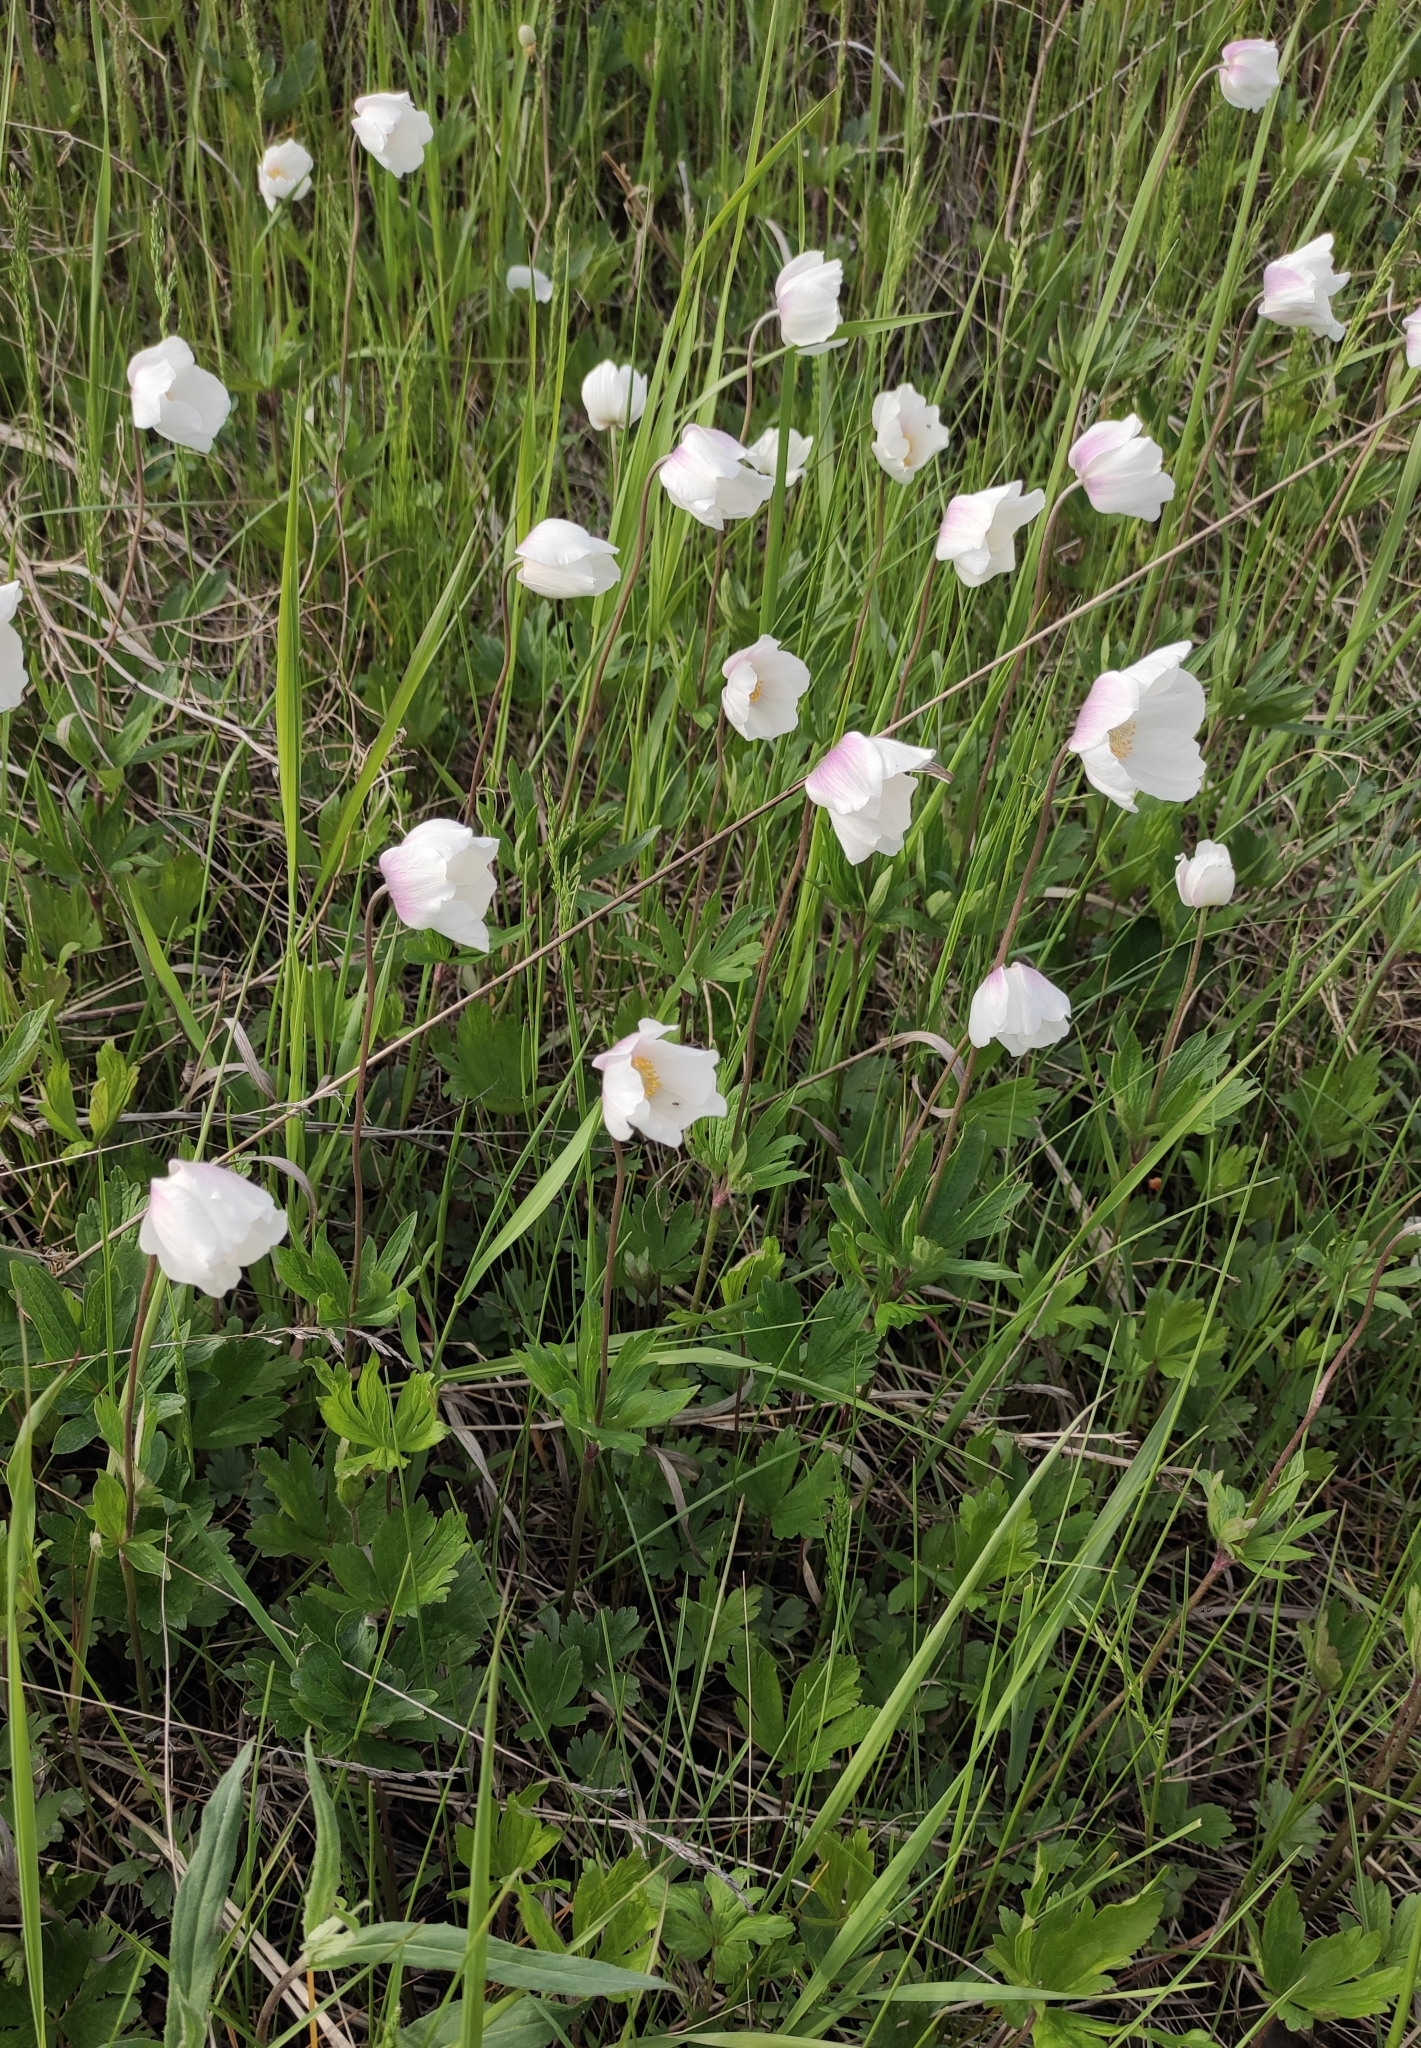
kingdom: Plantae
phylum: Tracheophyta
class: Magnoliopsida
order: Ranunculales
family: Ranunculaceae
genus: Anemone
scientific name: Anemone sylvestris
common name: Snowdrop anemone
